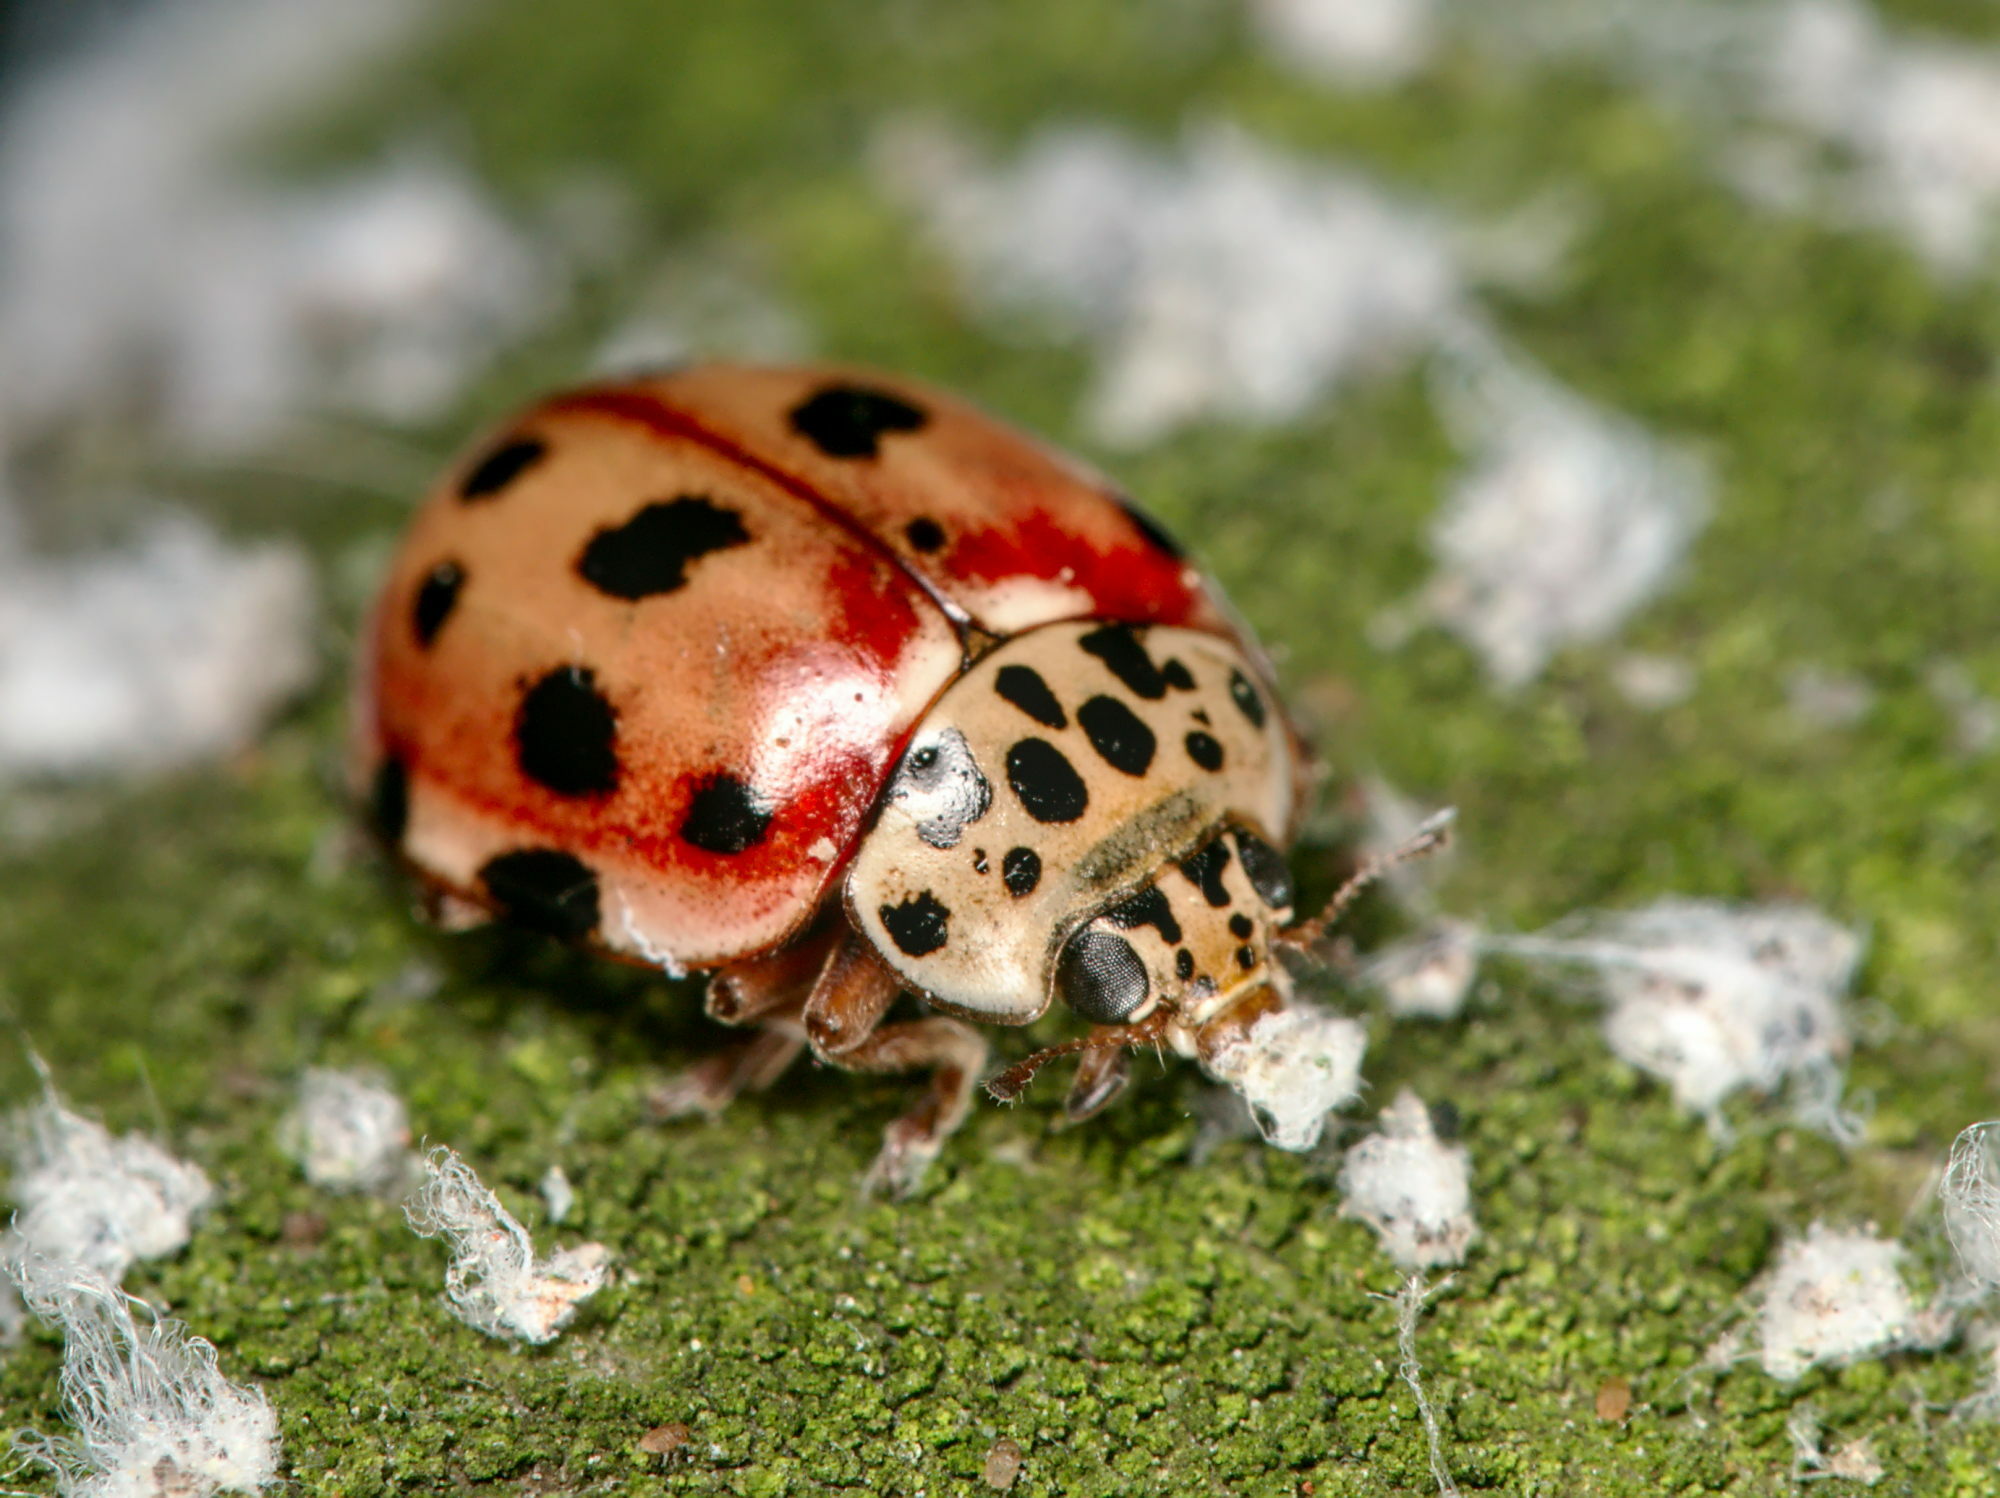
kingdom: Animalia
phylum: Arthropoda
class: Insecta
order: Coleoptera
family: Coccinellidae
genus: Harmonia
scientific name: Harmonia quadripunctata
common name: Cream-streaked ladybird
